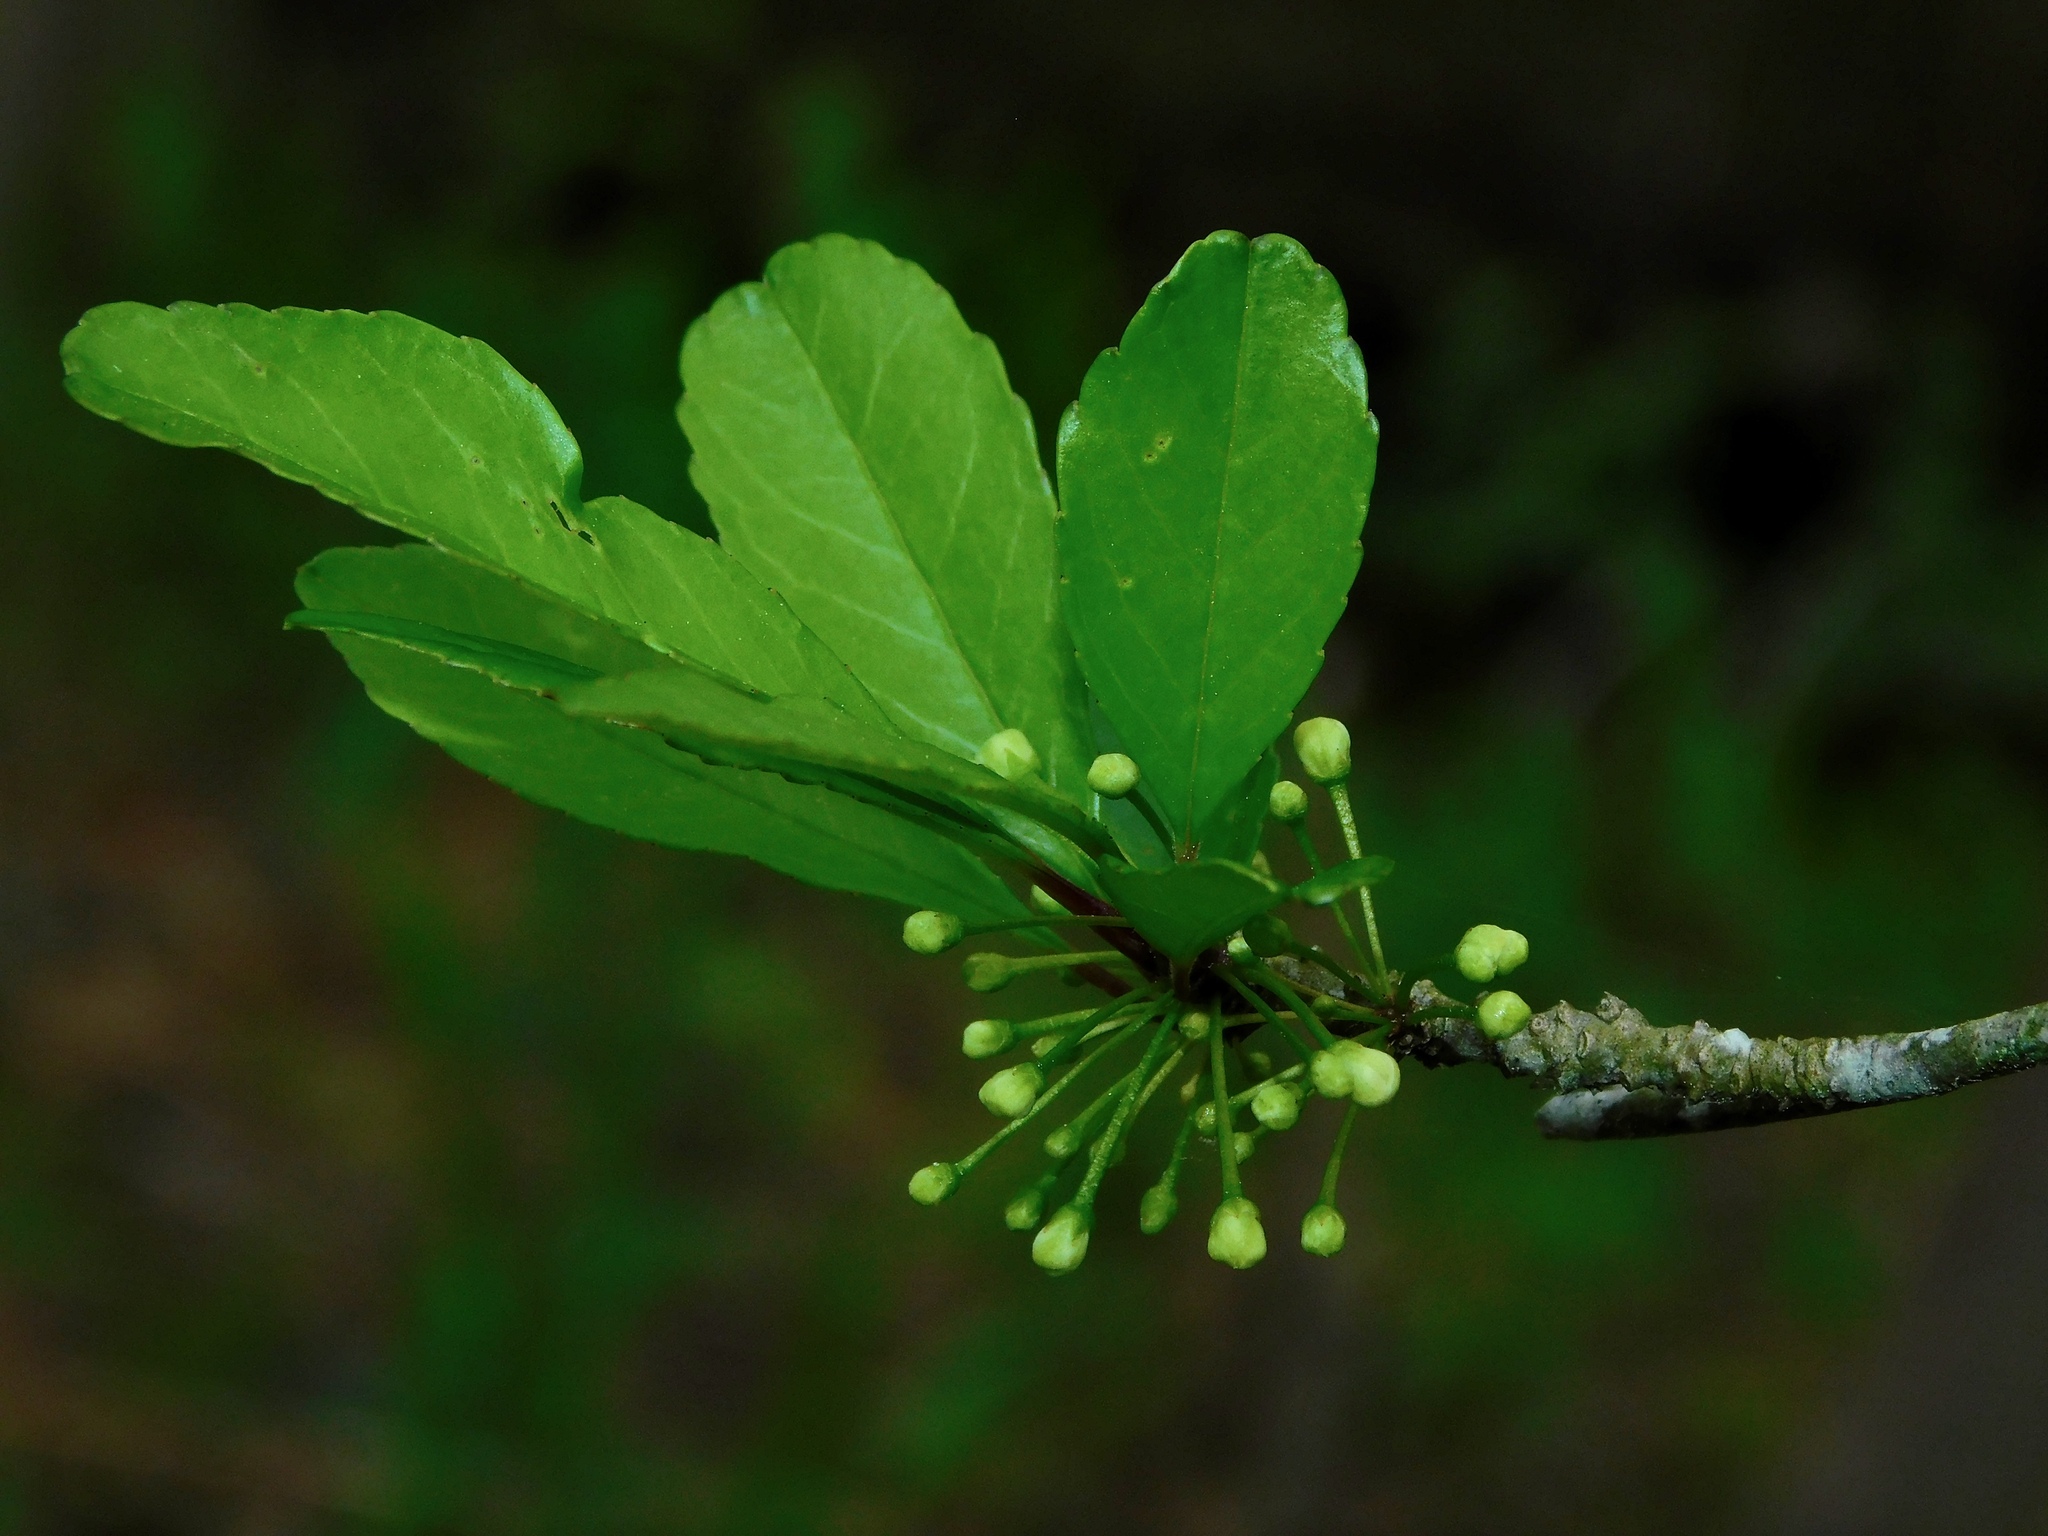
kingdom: Plantae
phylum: Tracheophyta
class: Magnoliopsida
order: Aquifoliales
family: Aquifoliaceae
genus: Ilex
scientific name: Ilex decidua
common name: Possum-haw
